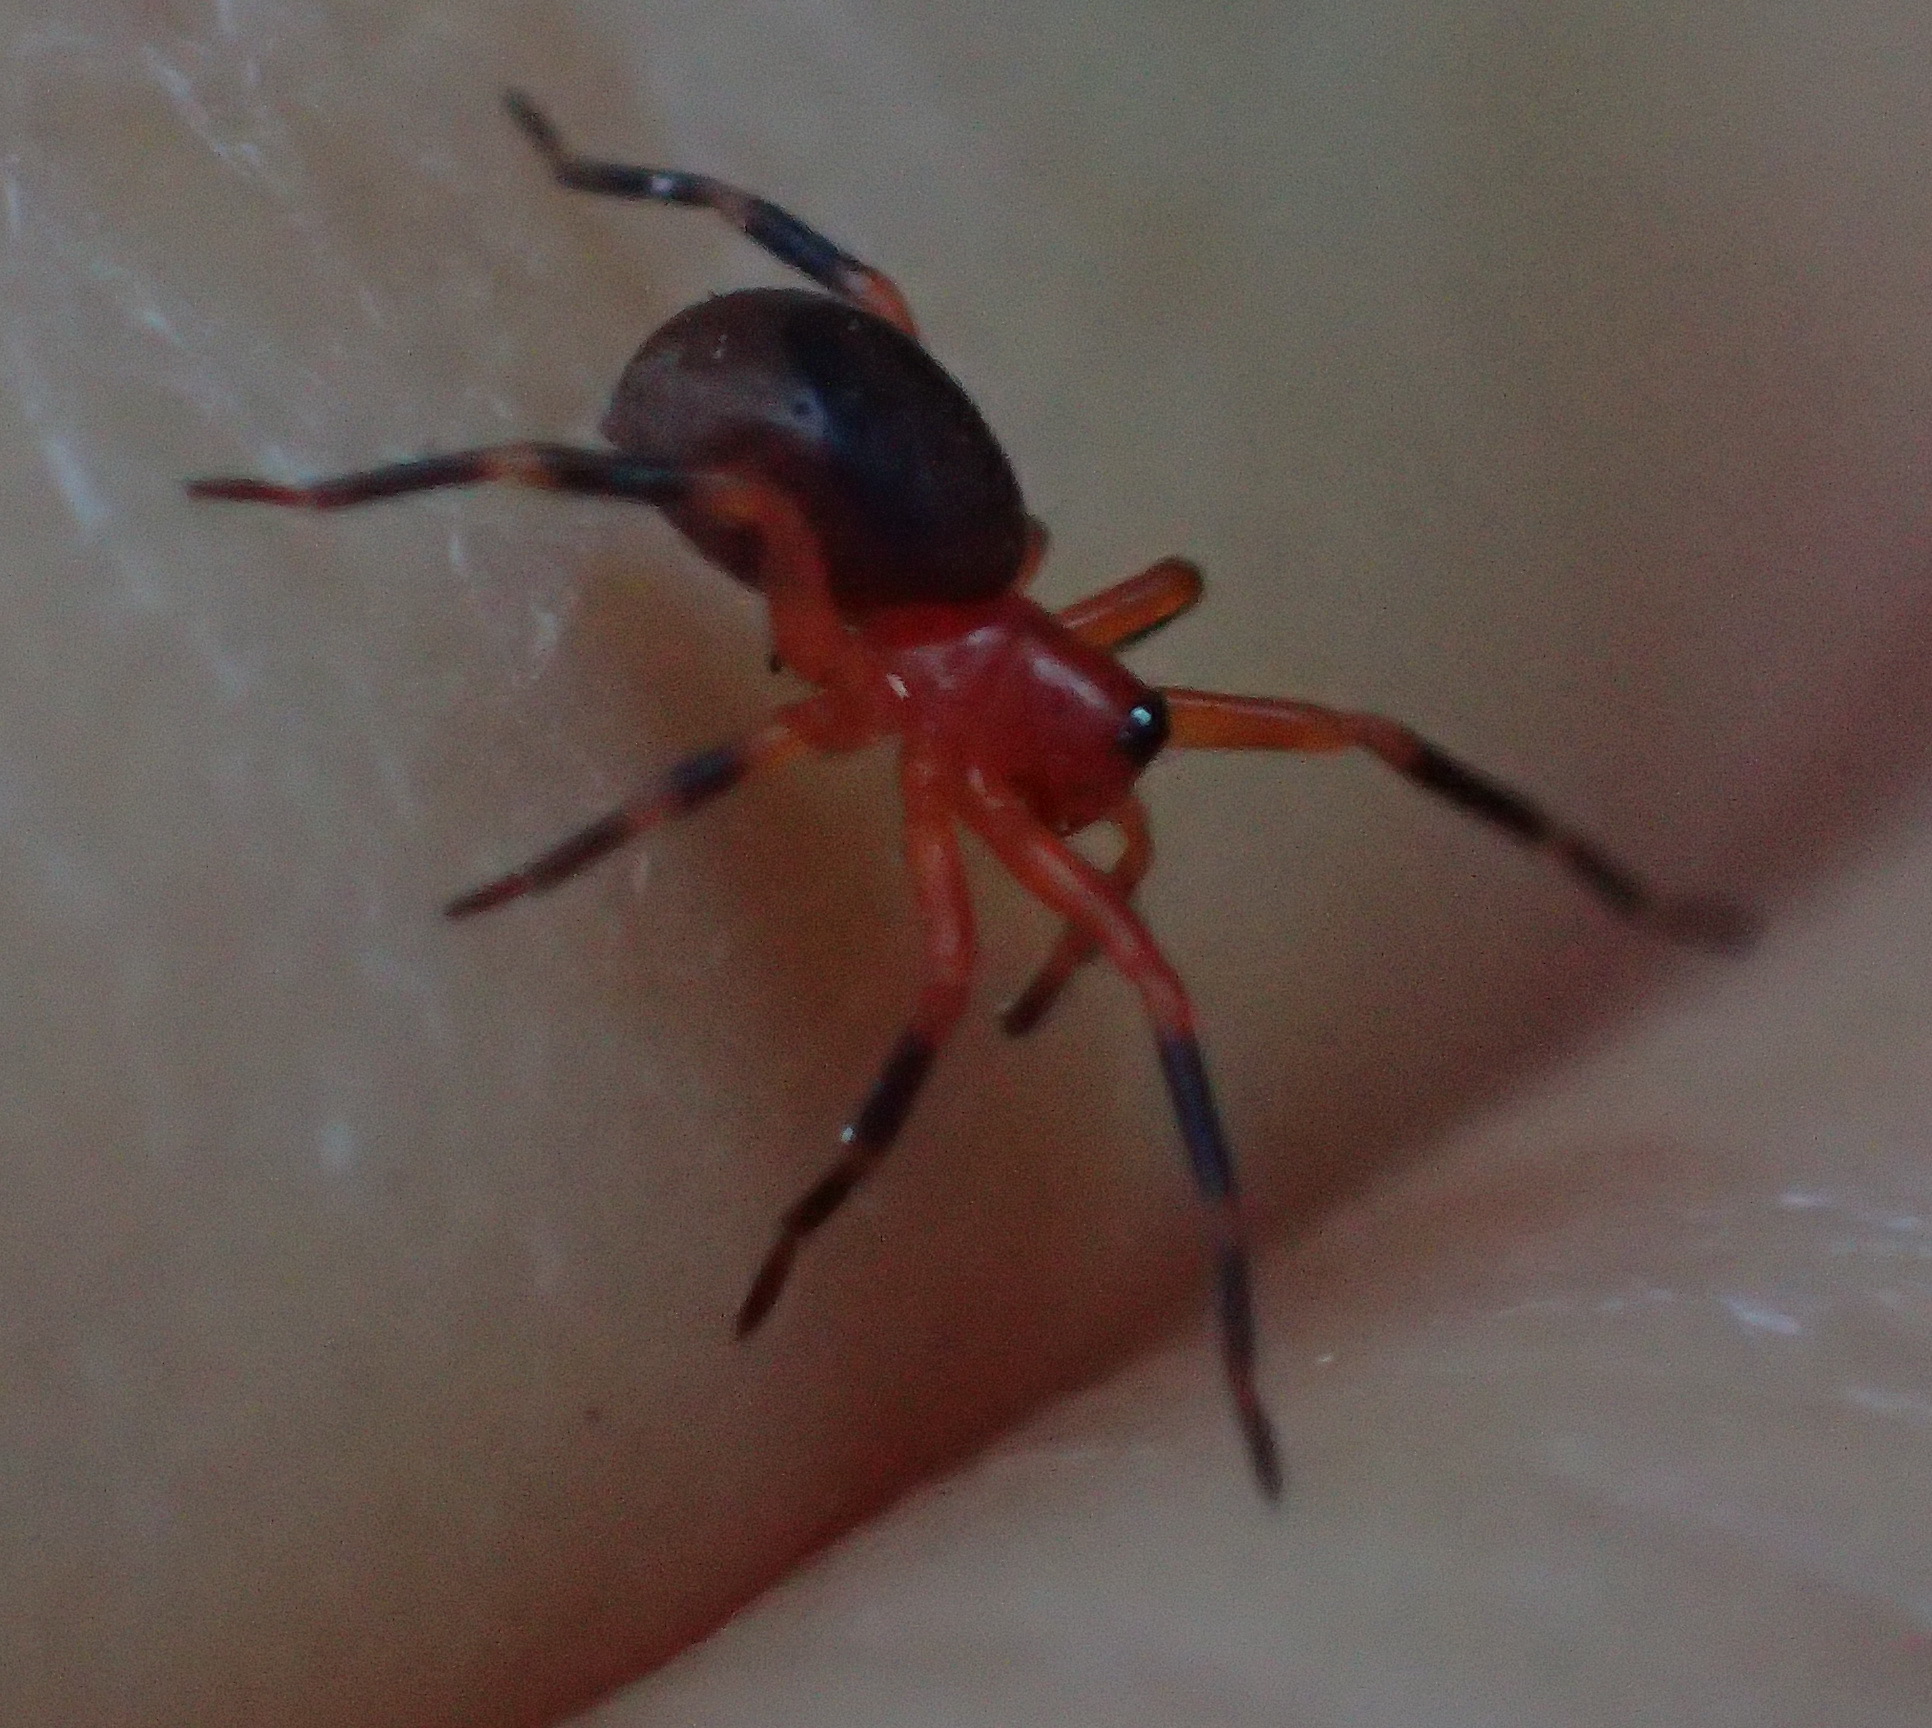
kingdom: Animalia
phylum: Arthropoda
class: Arachnida
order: Araneae
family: Amaurobiidae
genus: Chumma
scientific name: Chumma inquieta
